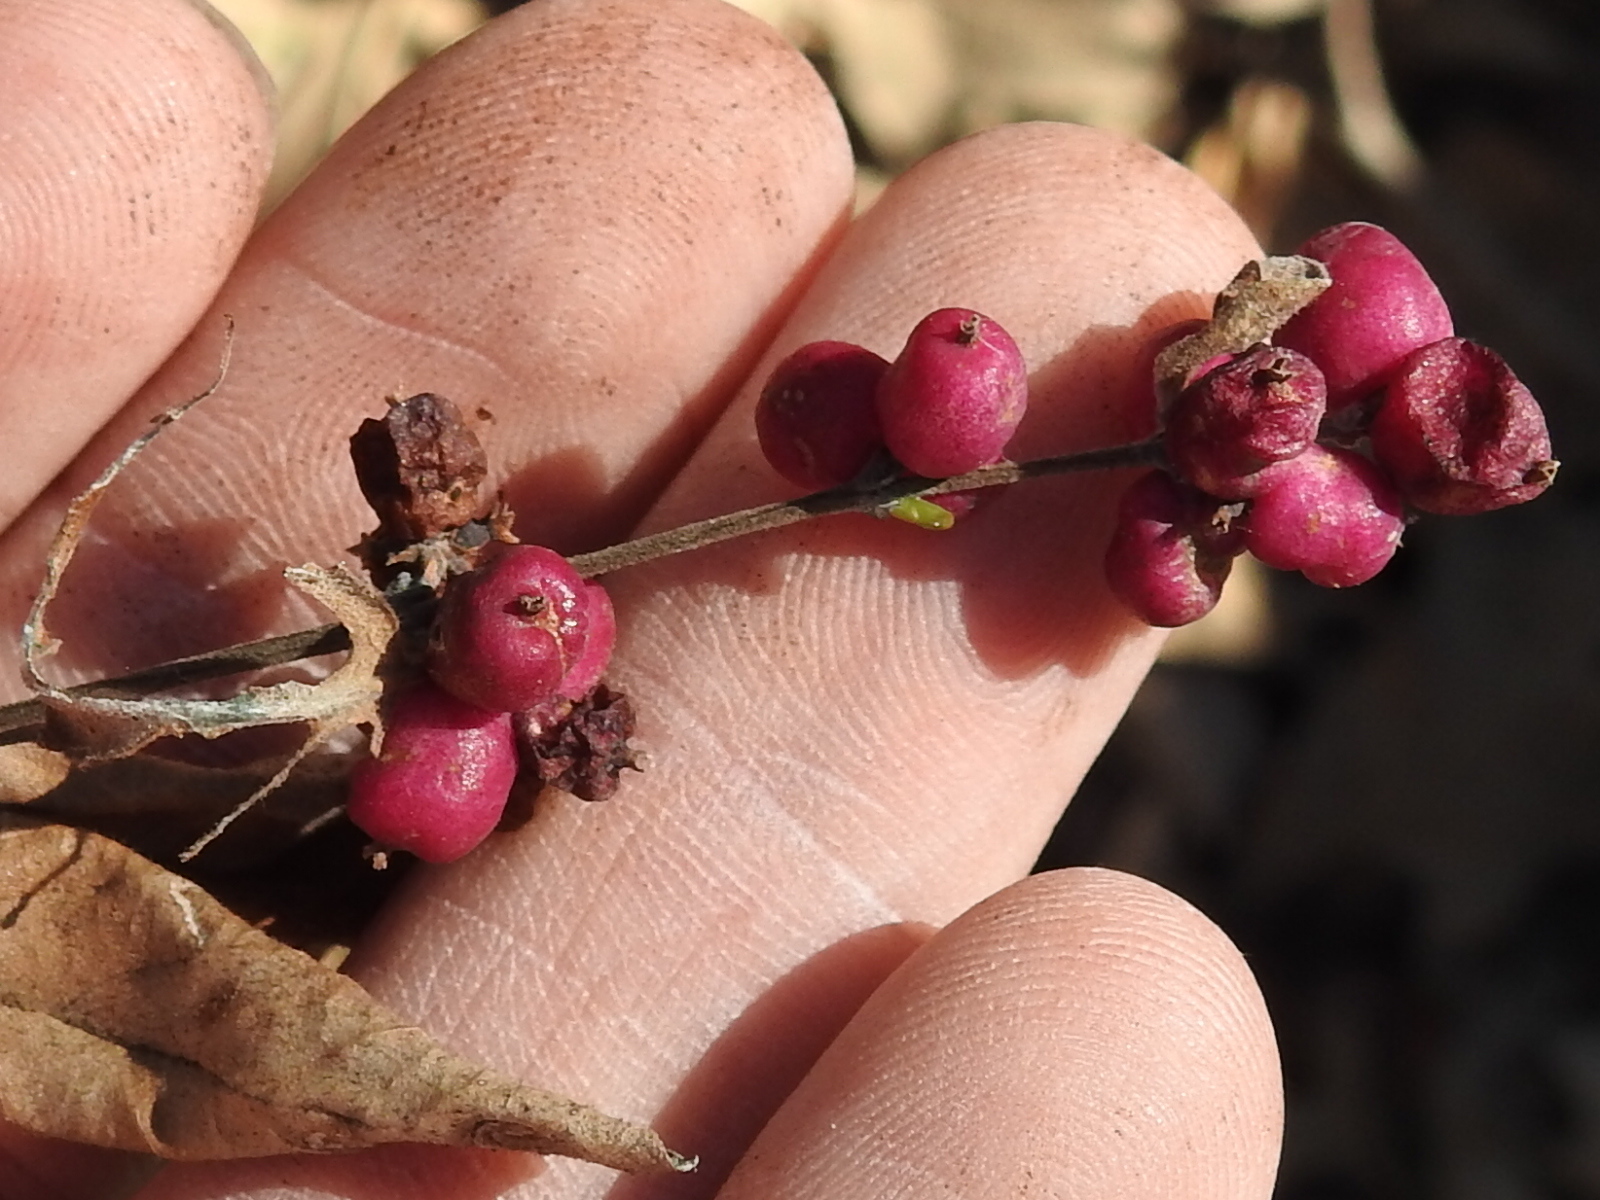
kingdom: Plantae
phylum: Tracheophyta
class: Magnoliopsida
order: Dipsacales
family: Caprifoliaceae
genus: Symphoricarpos
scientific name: Symphoricarpos orbiculatus
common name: Coralberry
